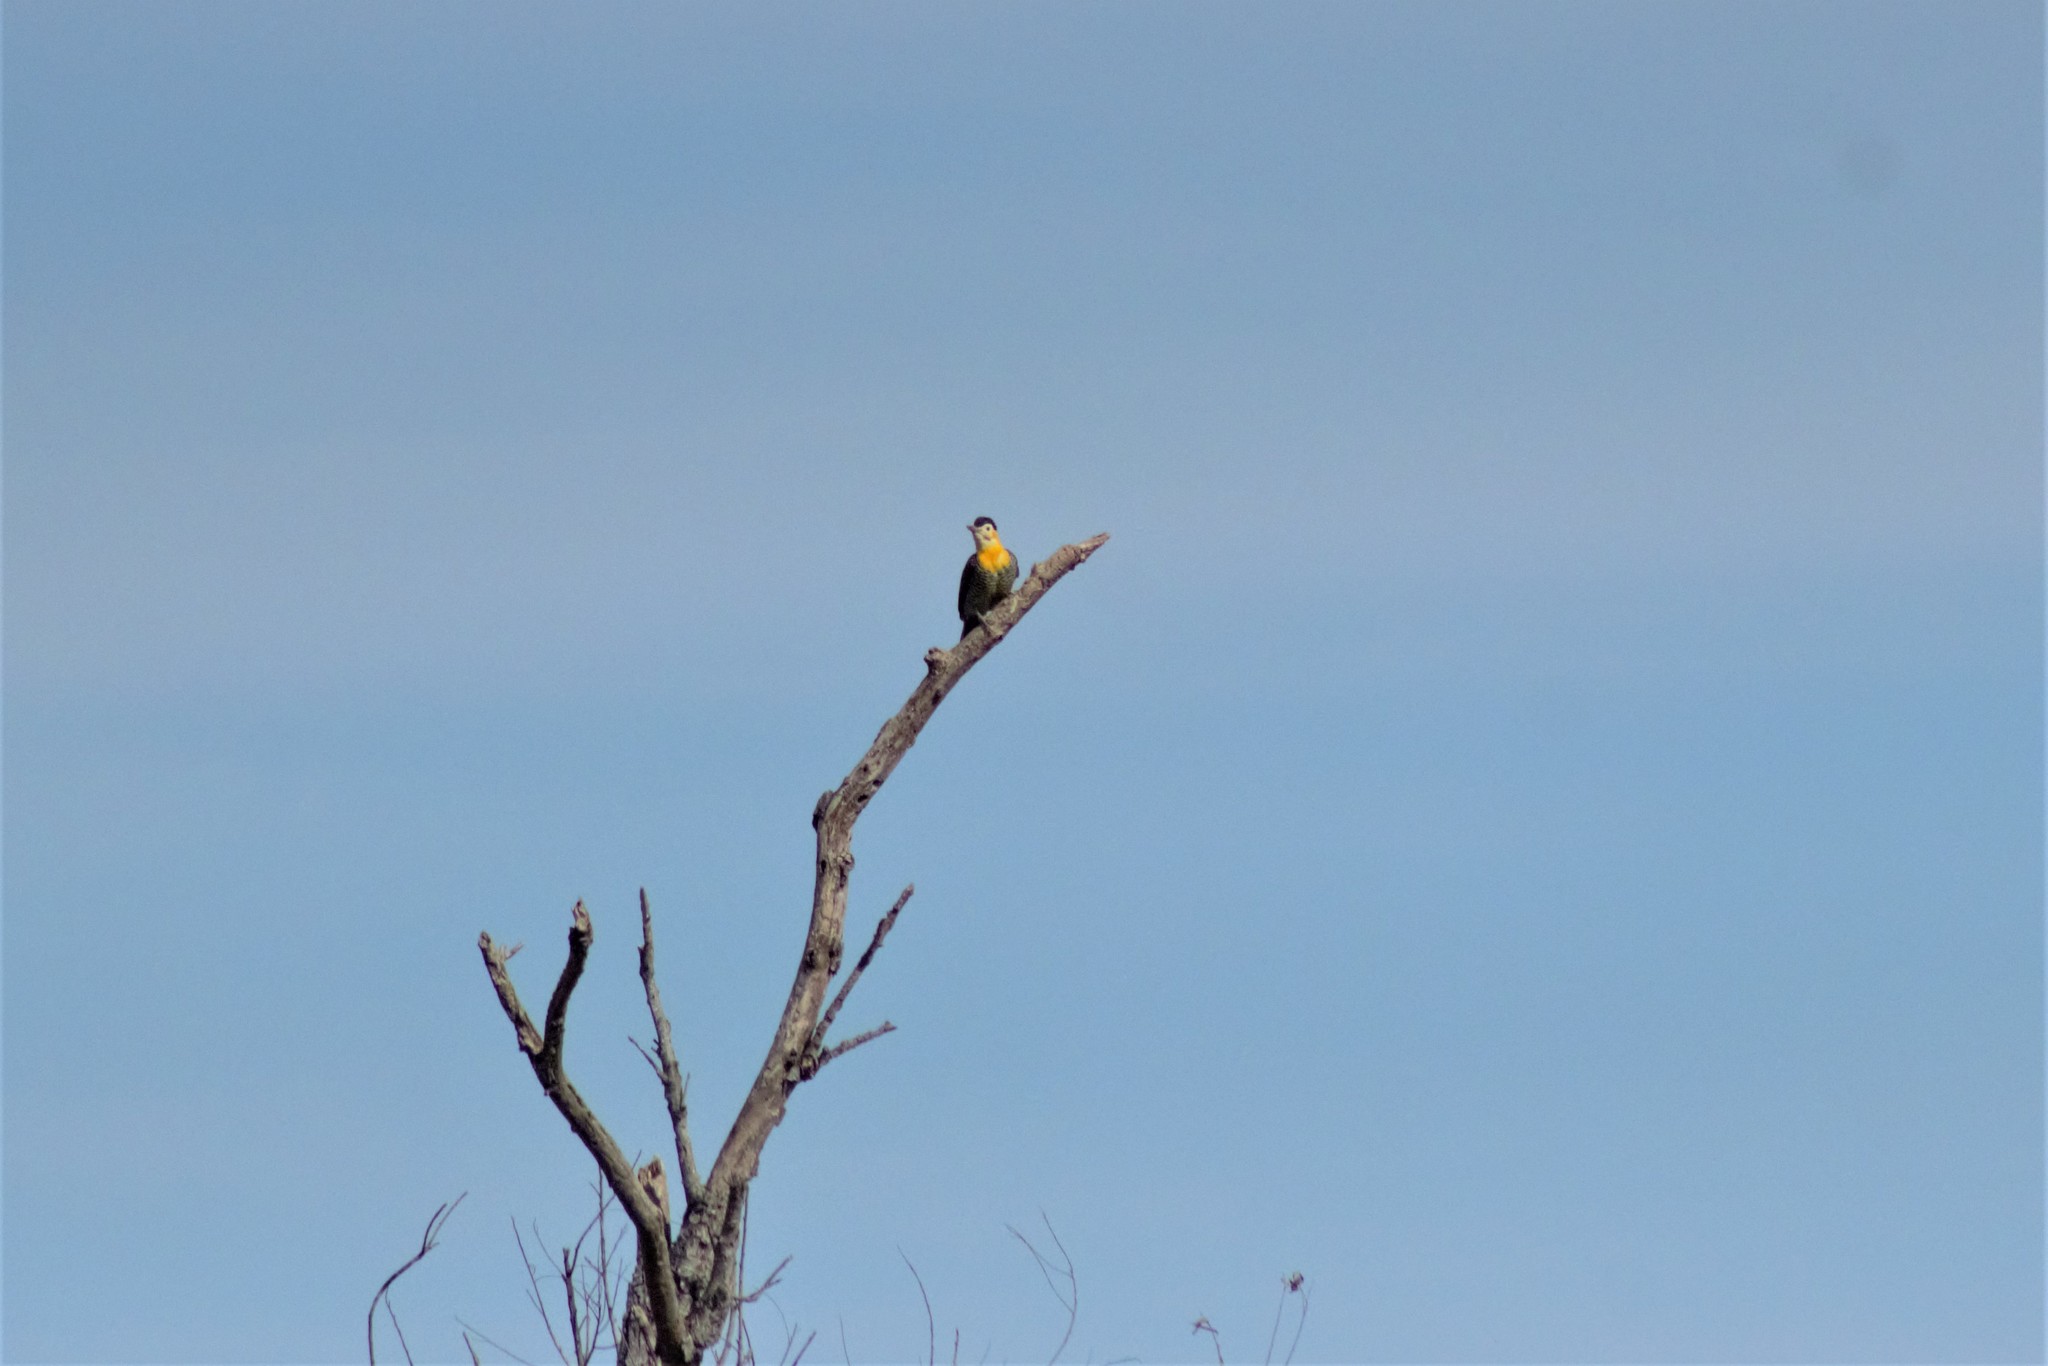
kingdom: Animalia
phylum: Chordata
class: Aves
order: Piciformes
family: Picidae
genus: Colaptes
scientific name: Colaptes campestris
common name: Campo flicker
